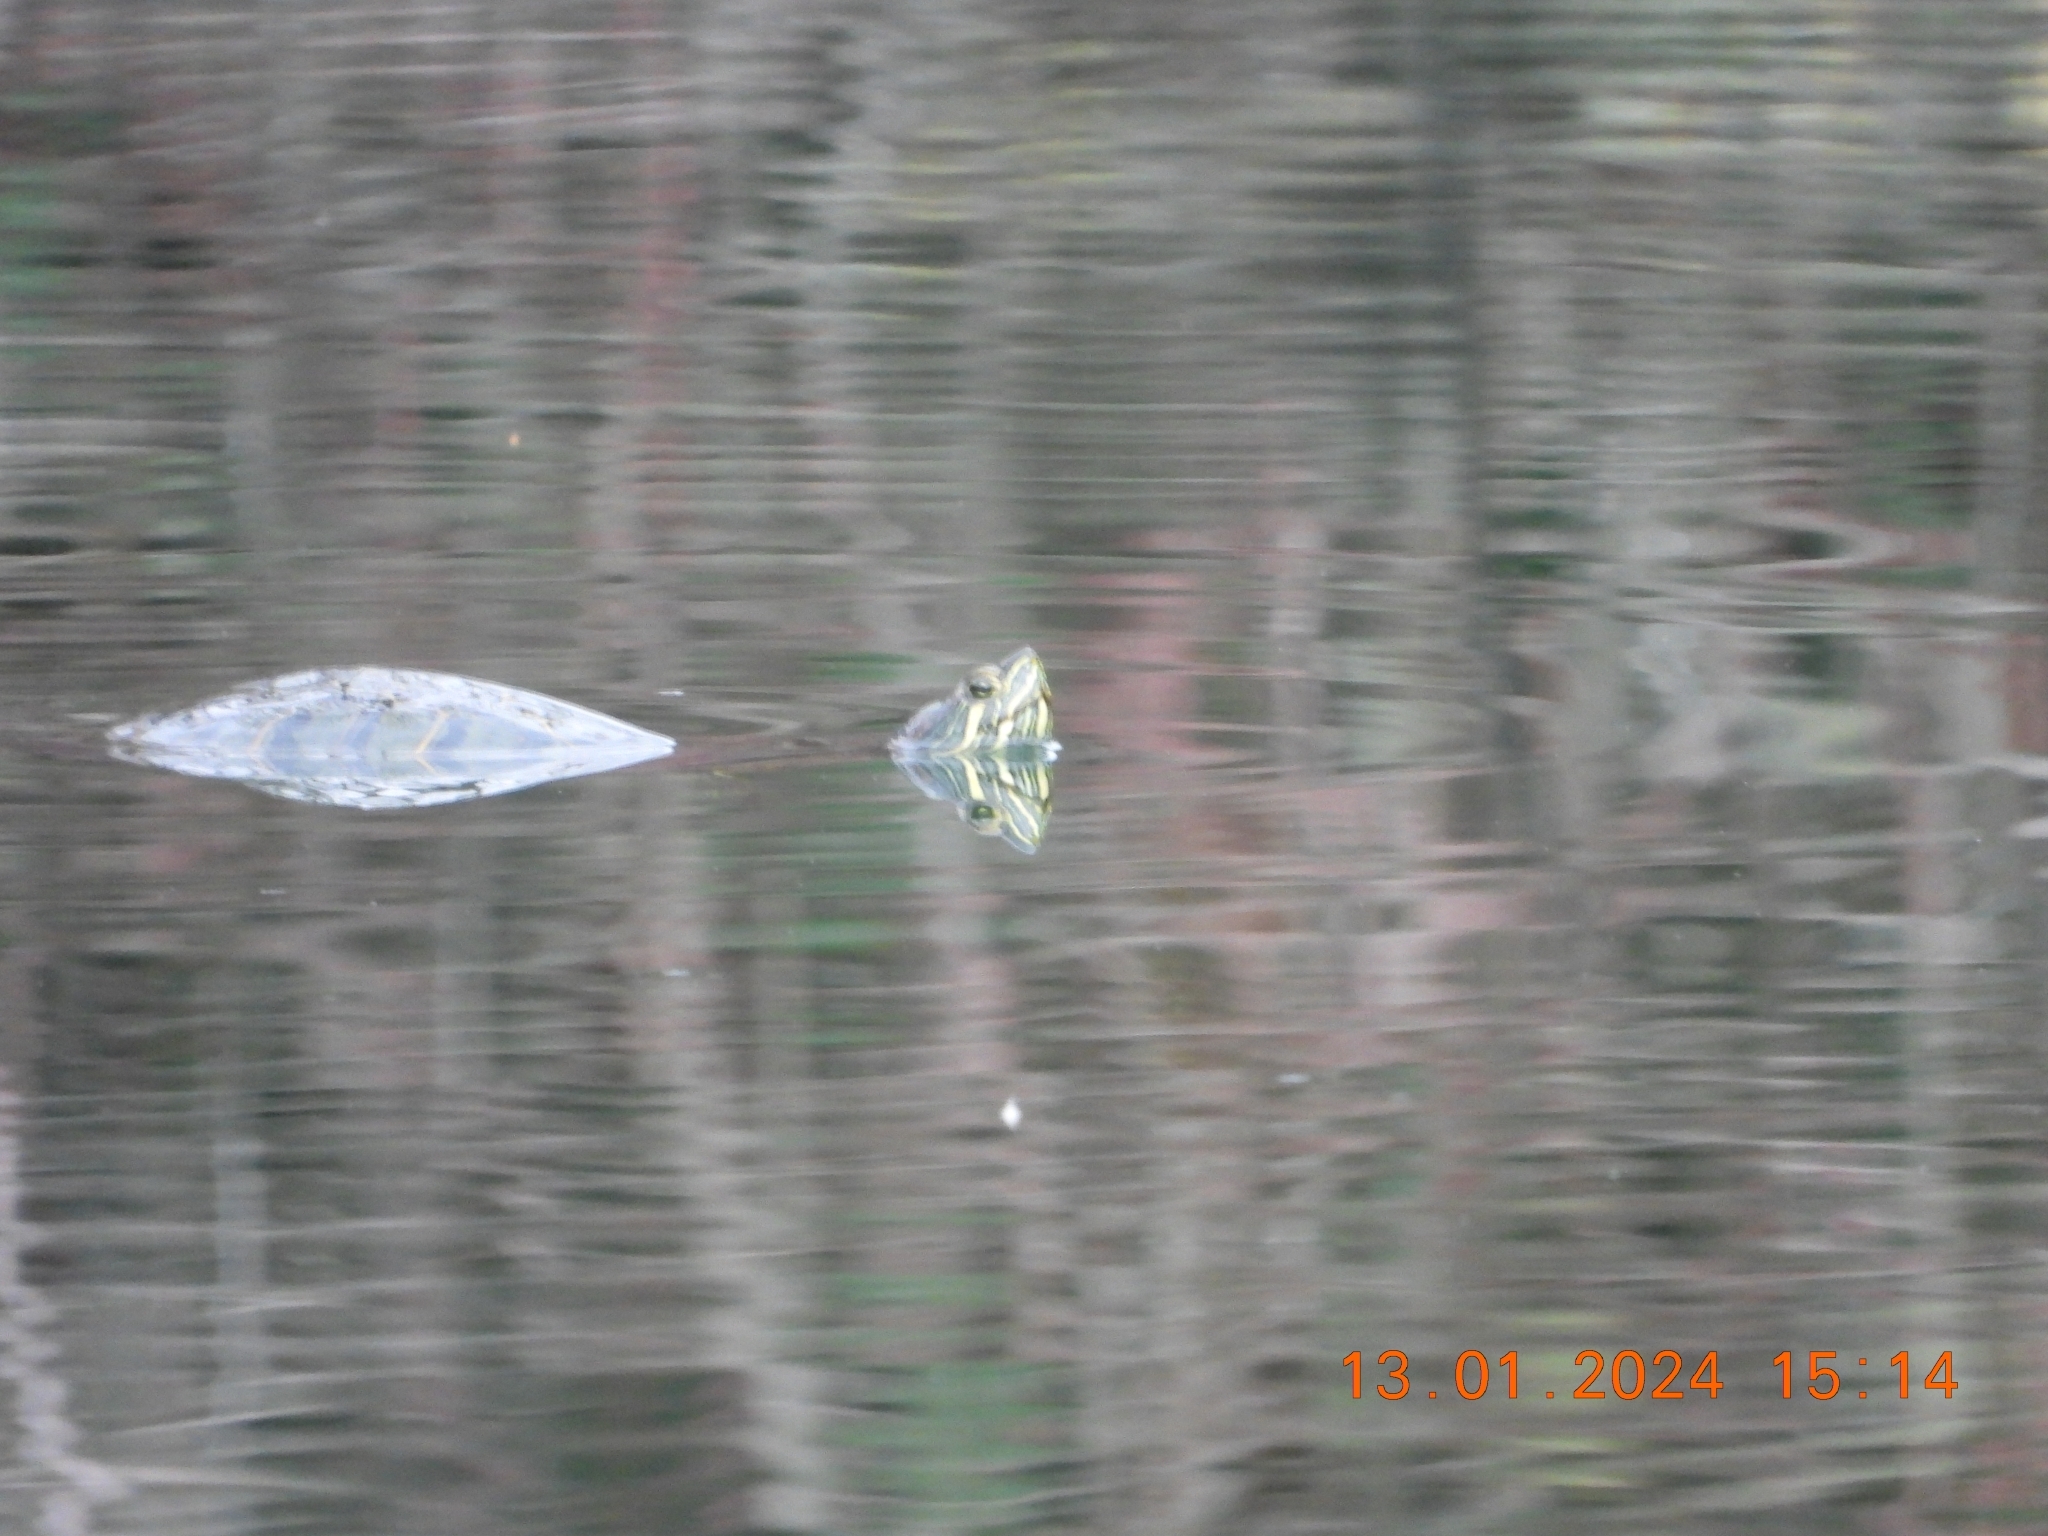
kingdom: Animalia
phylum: Chordata
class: Testudines
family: Emydidae
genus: Trachemys
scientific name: Trachemys scripta
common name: Slider
